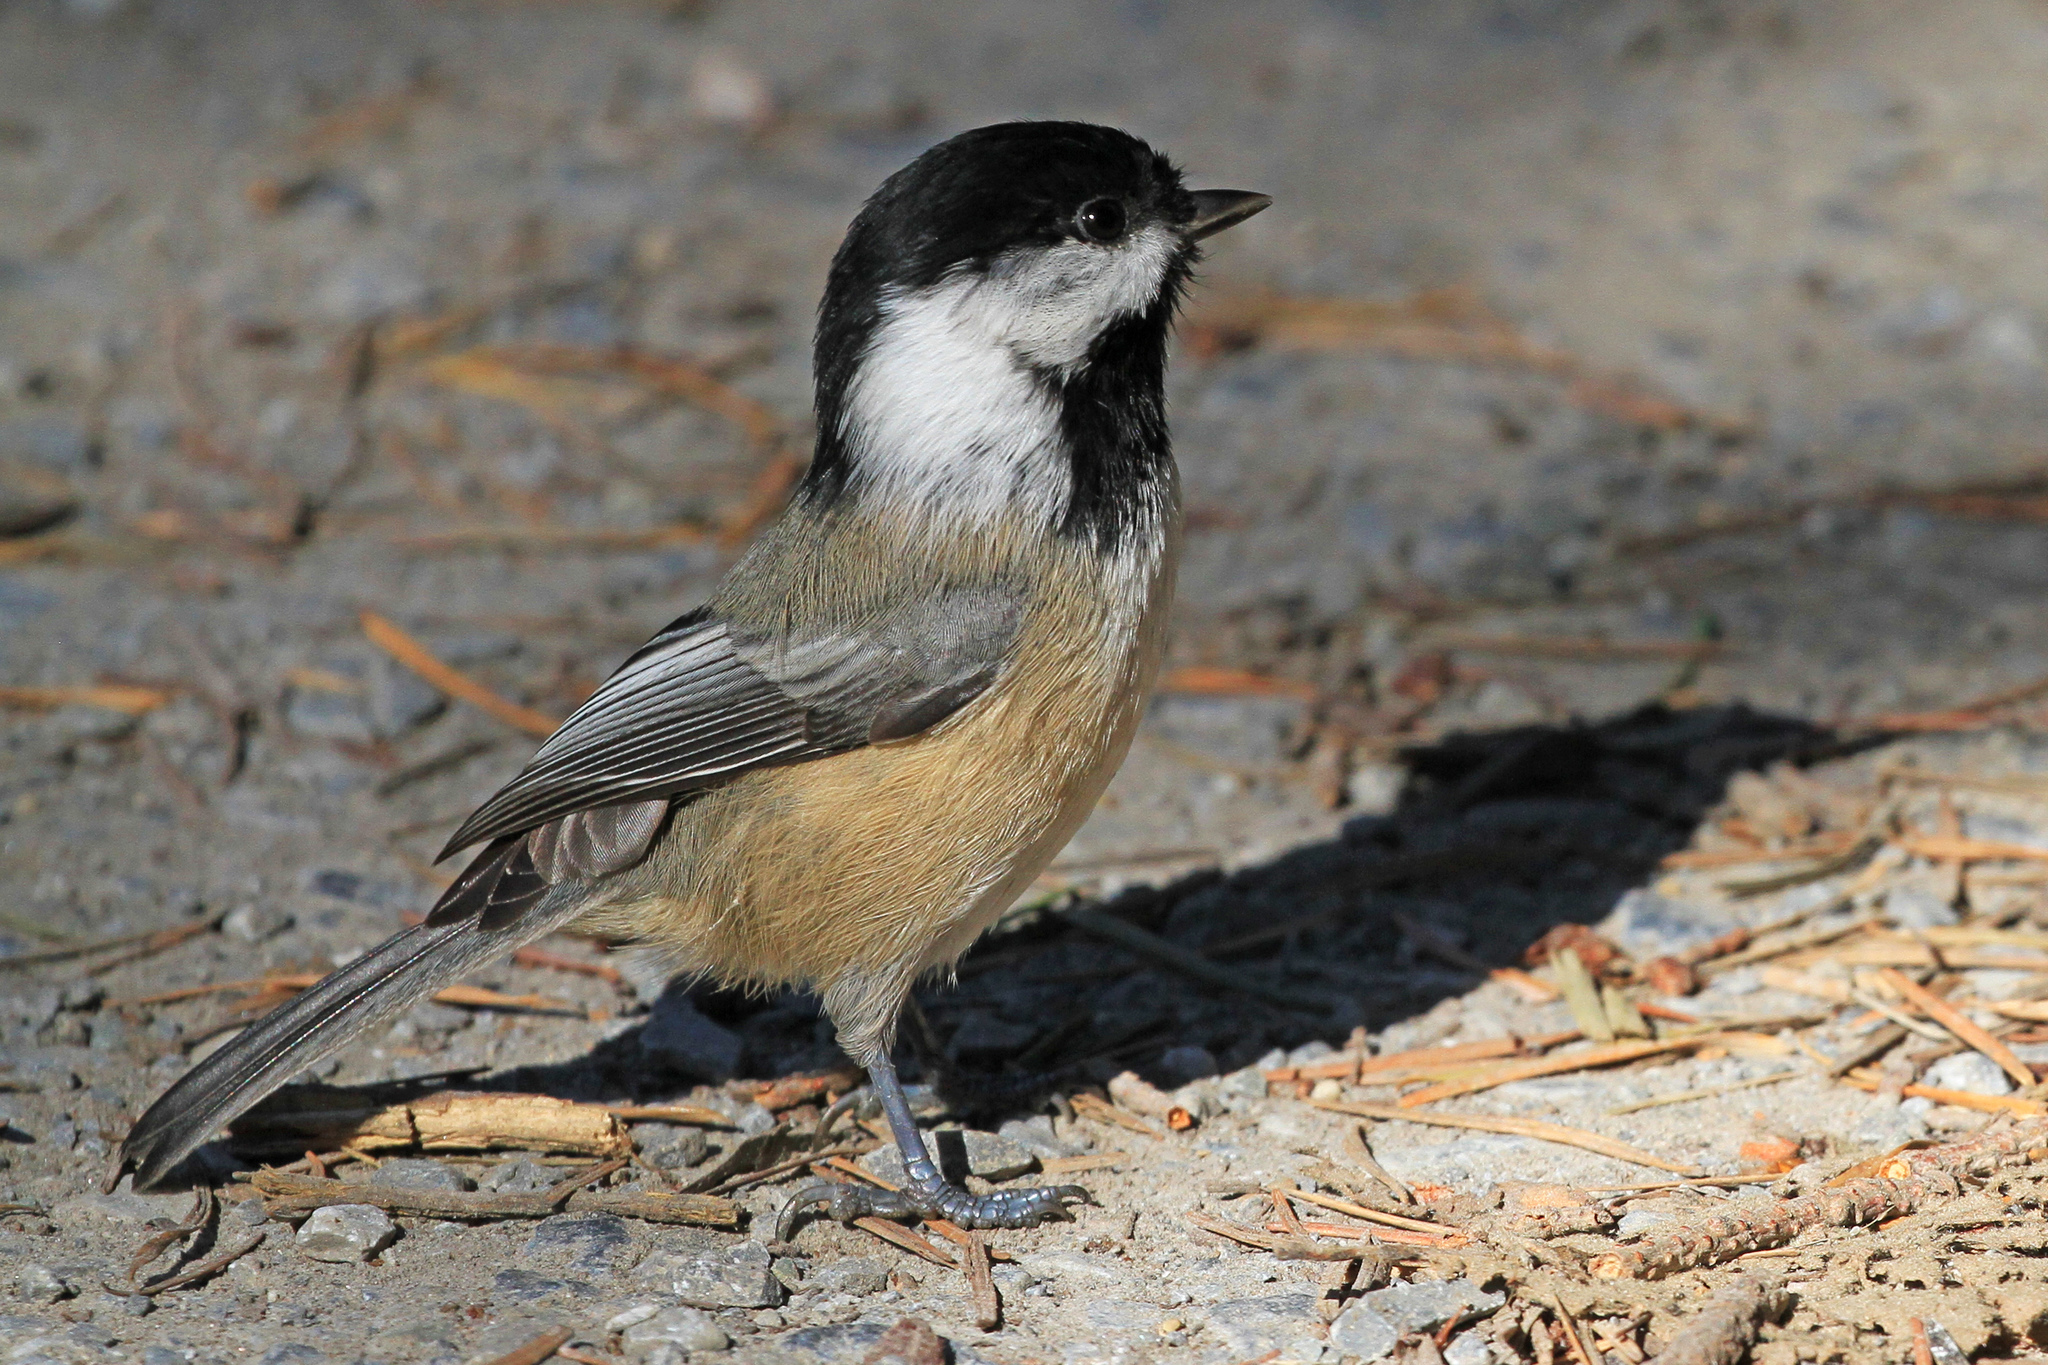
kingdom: Animalia
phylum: Chordata
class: Aves
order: Passeriformes
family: Paridae
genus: Poecile
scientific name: Poecile atricapillus
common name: Black-capped chickadee
